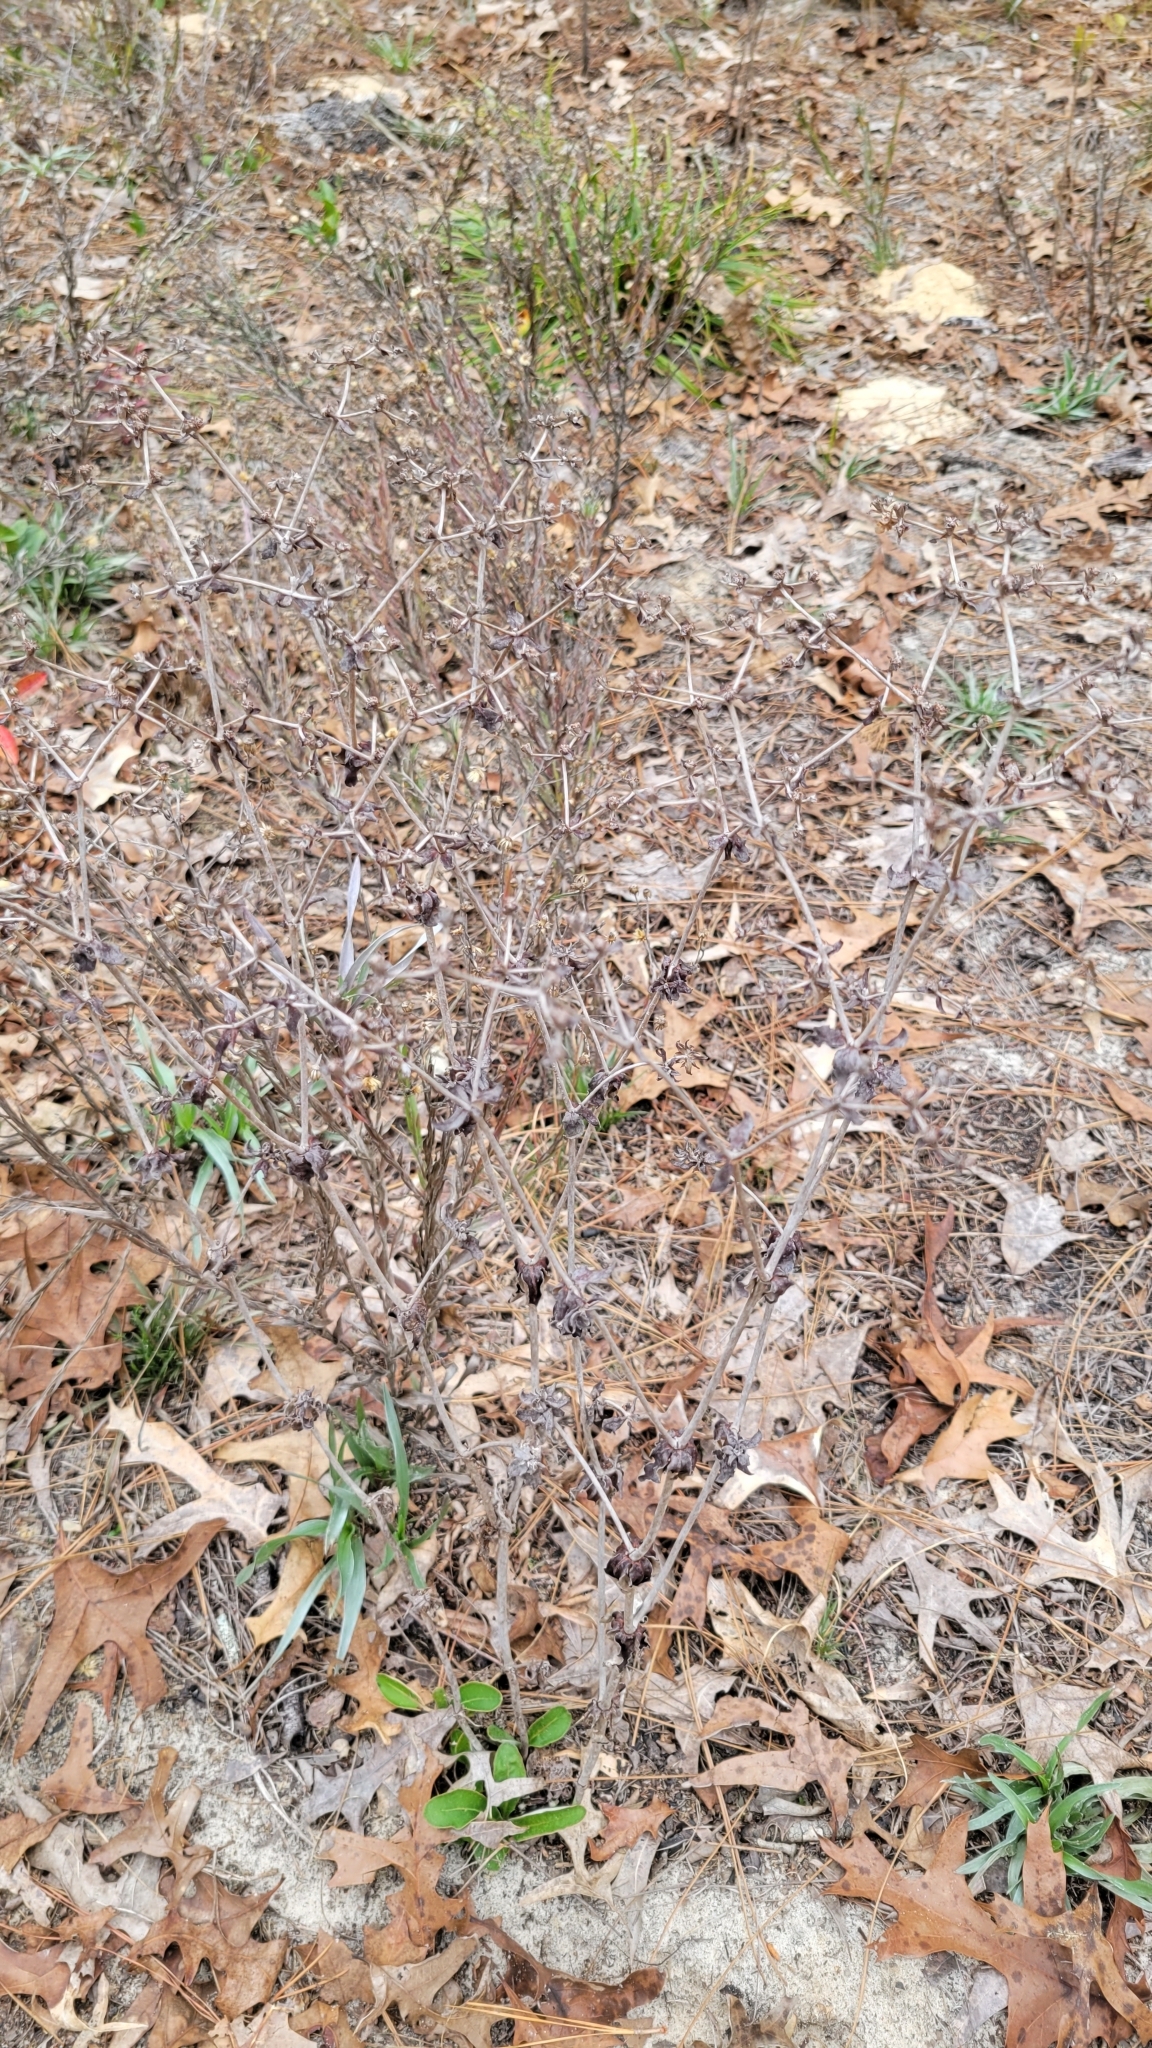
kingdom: Plantae
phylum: Tracheophyta
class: Magnoliopsida
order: Caryophyllales
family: Polygonaceae
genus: Eriogonum
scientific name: Eriogonum tomentosum
